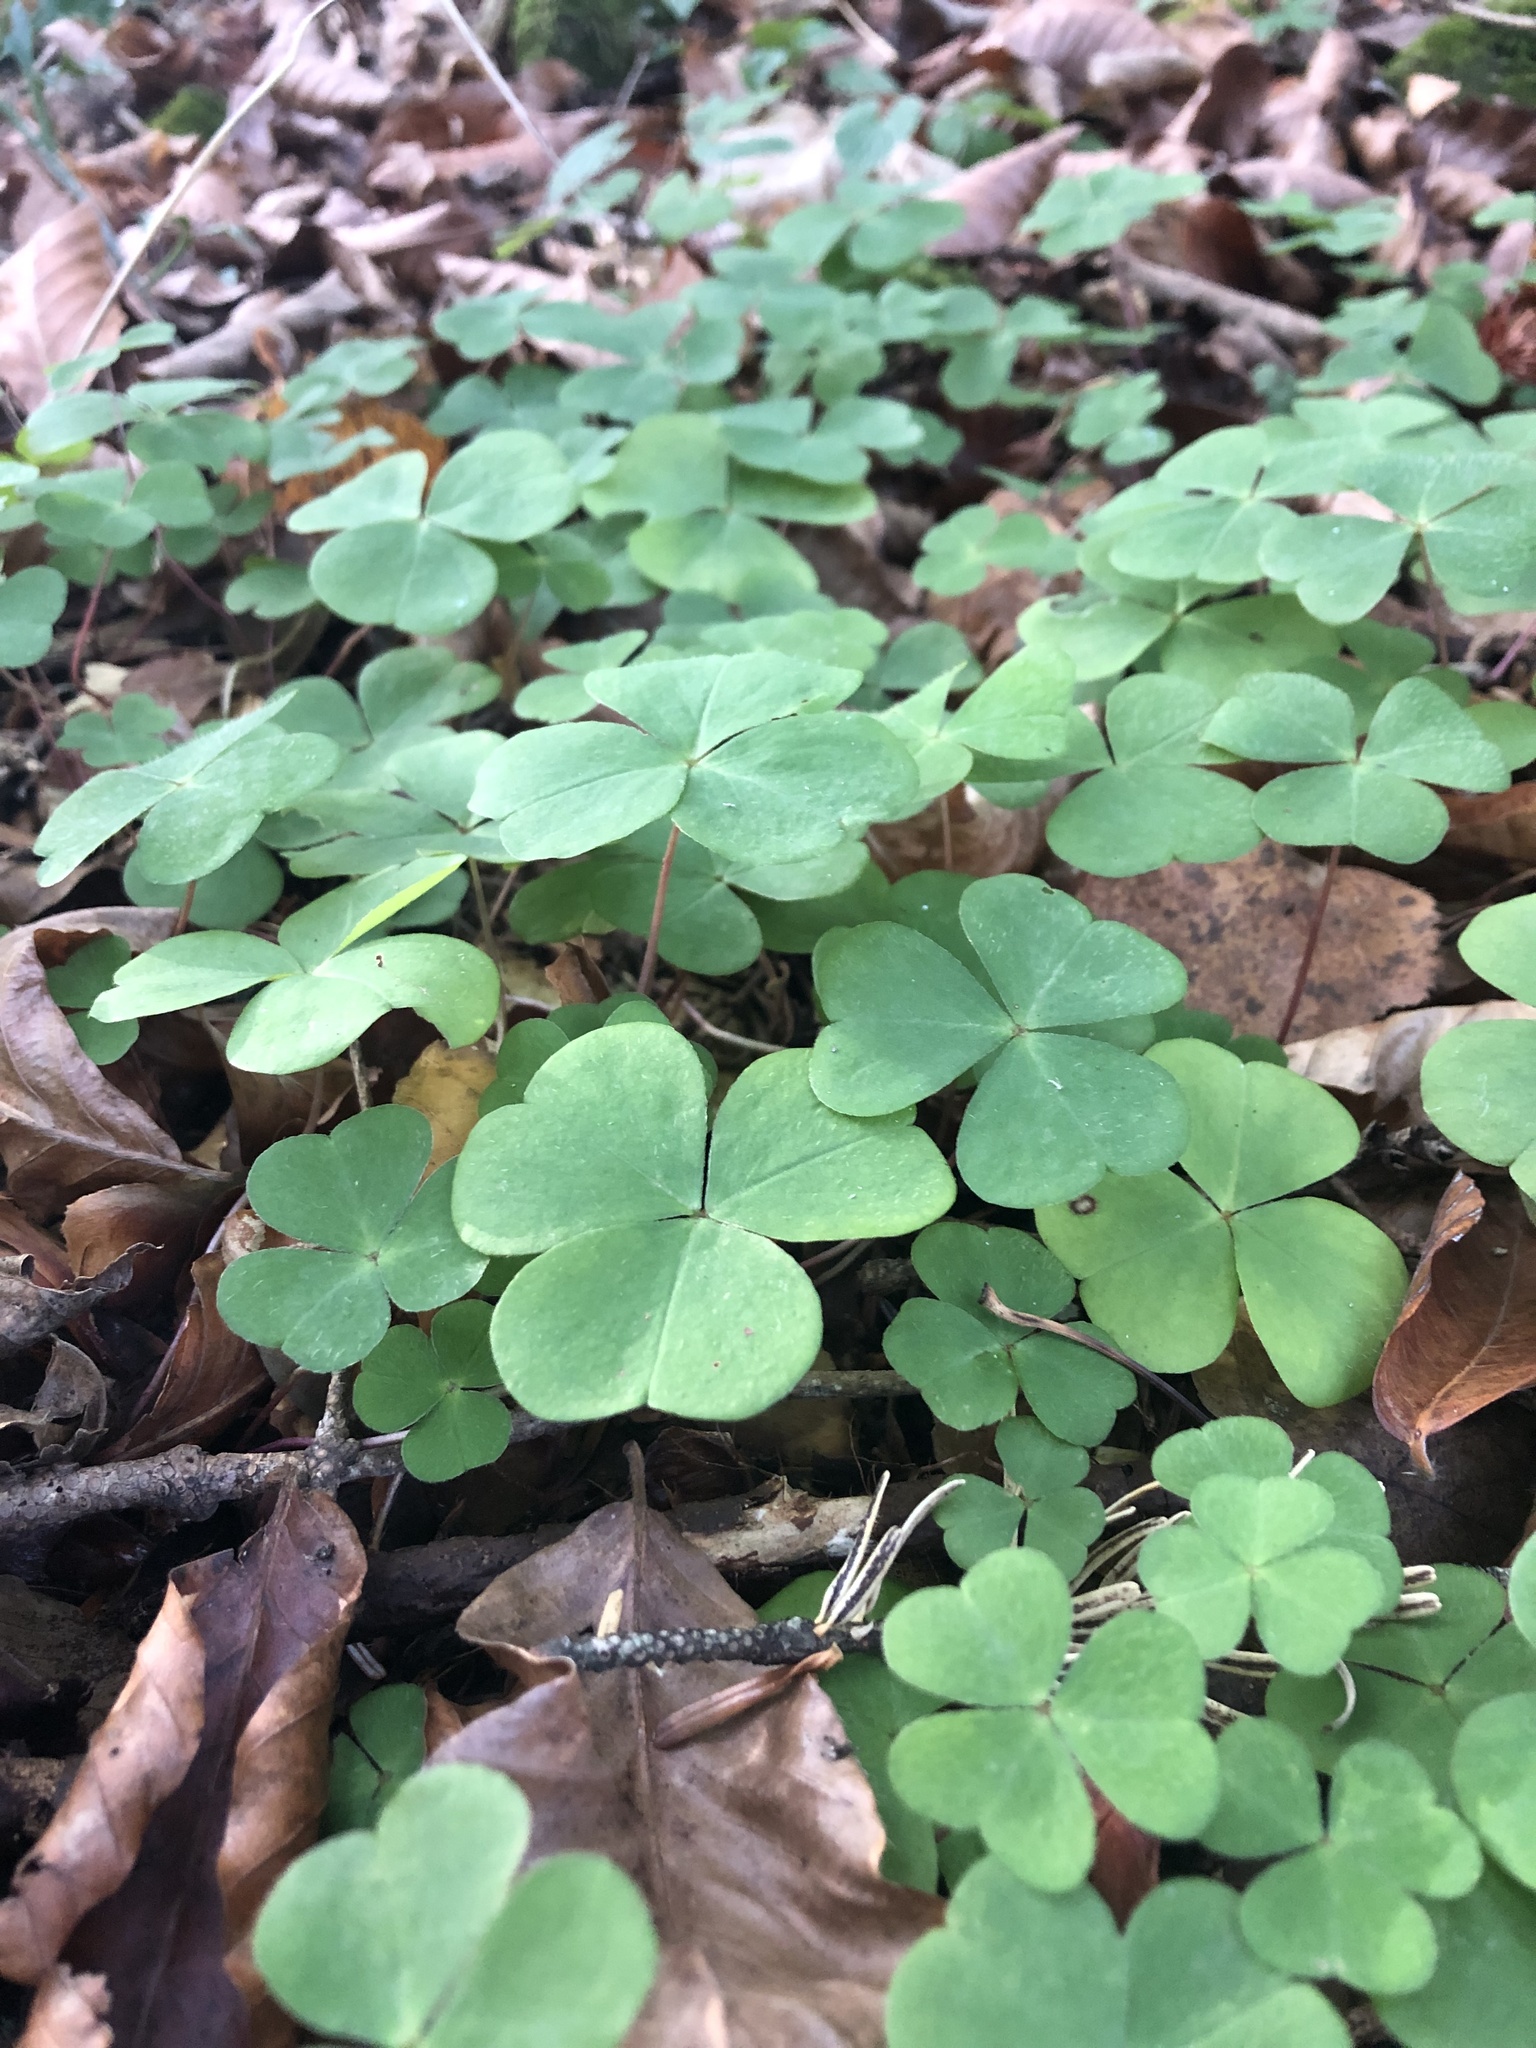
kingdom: Plantae
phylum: Tracheophyta
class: Magnoliopsida
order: Oxalidales
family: Oxalidaceae
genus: Oxalis
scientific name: Oxalis acetosella
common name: Wood-sorrel
